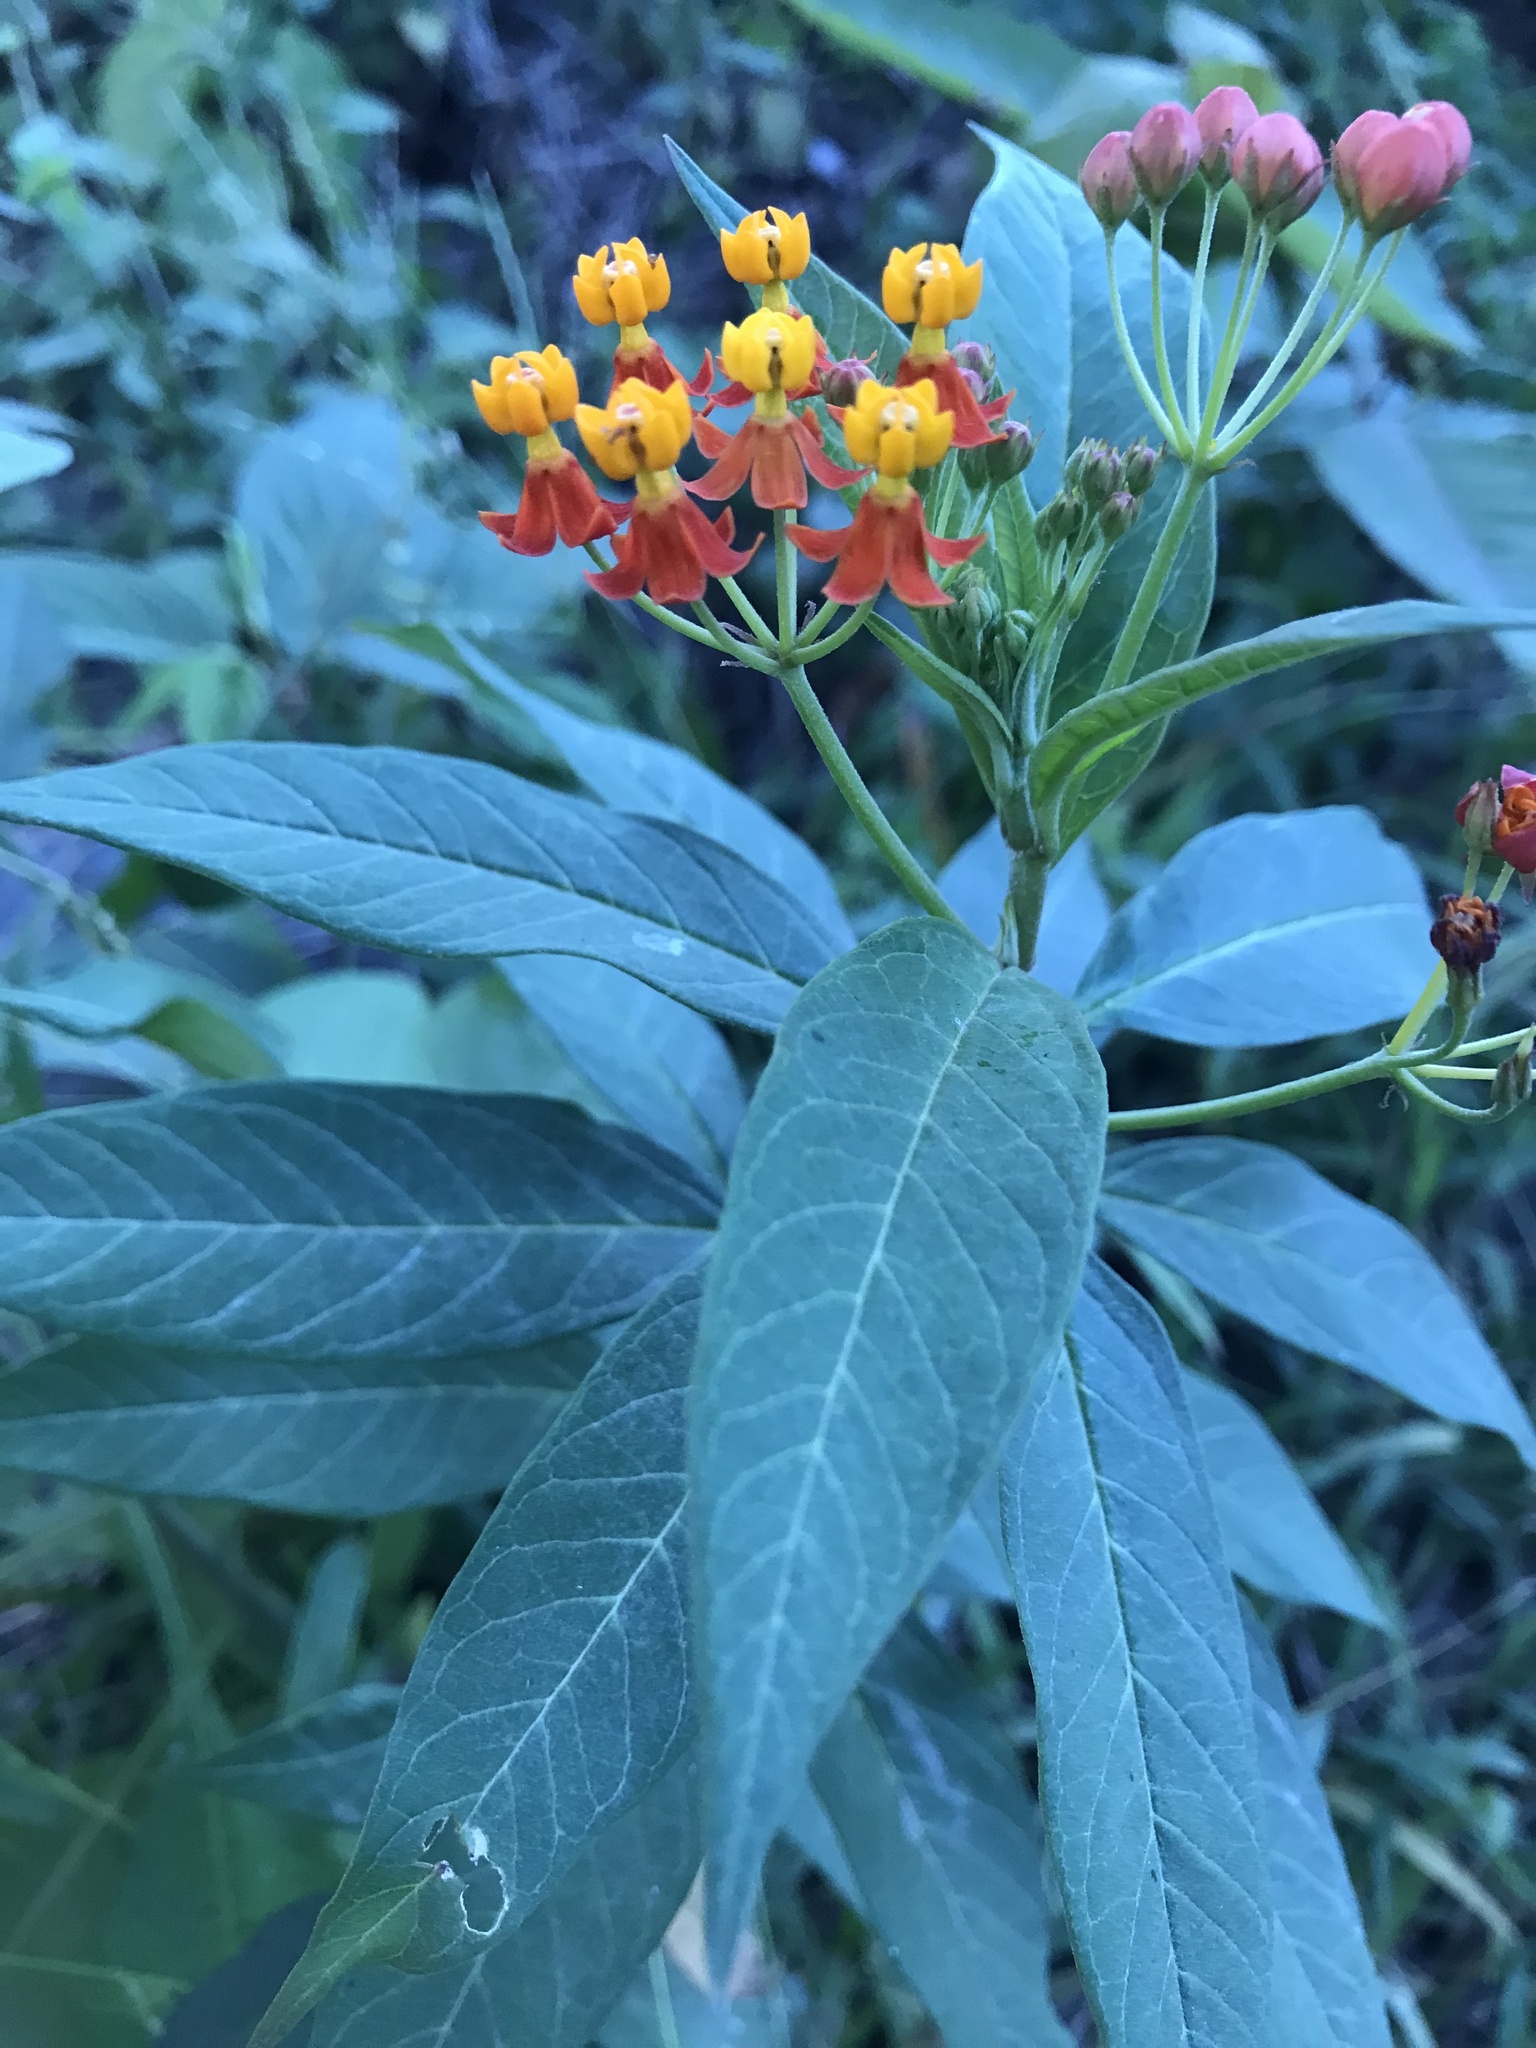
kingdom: Plantae
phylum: Tracheophyta
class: Magnoliopsida
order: Gentianales
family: Apocynaceae
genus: Asclepias
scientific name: Asclepias curassavica
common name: Bloodflower
